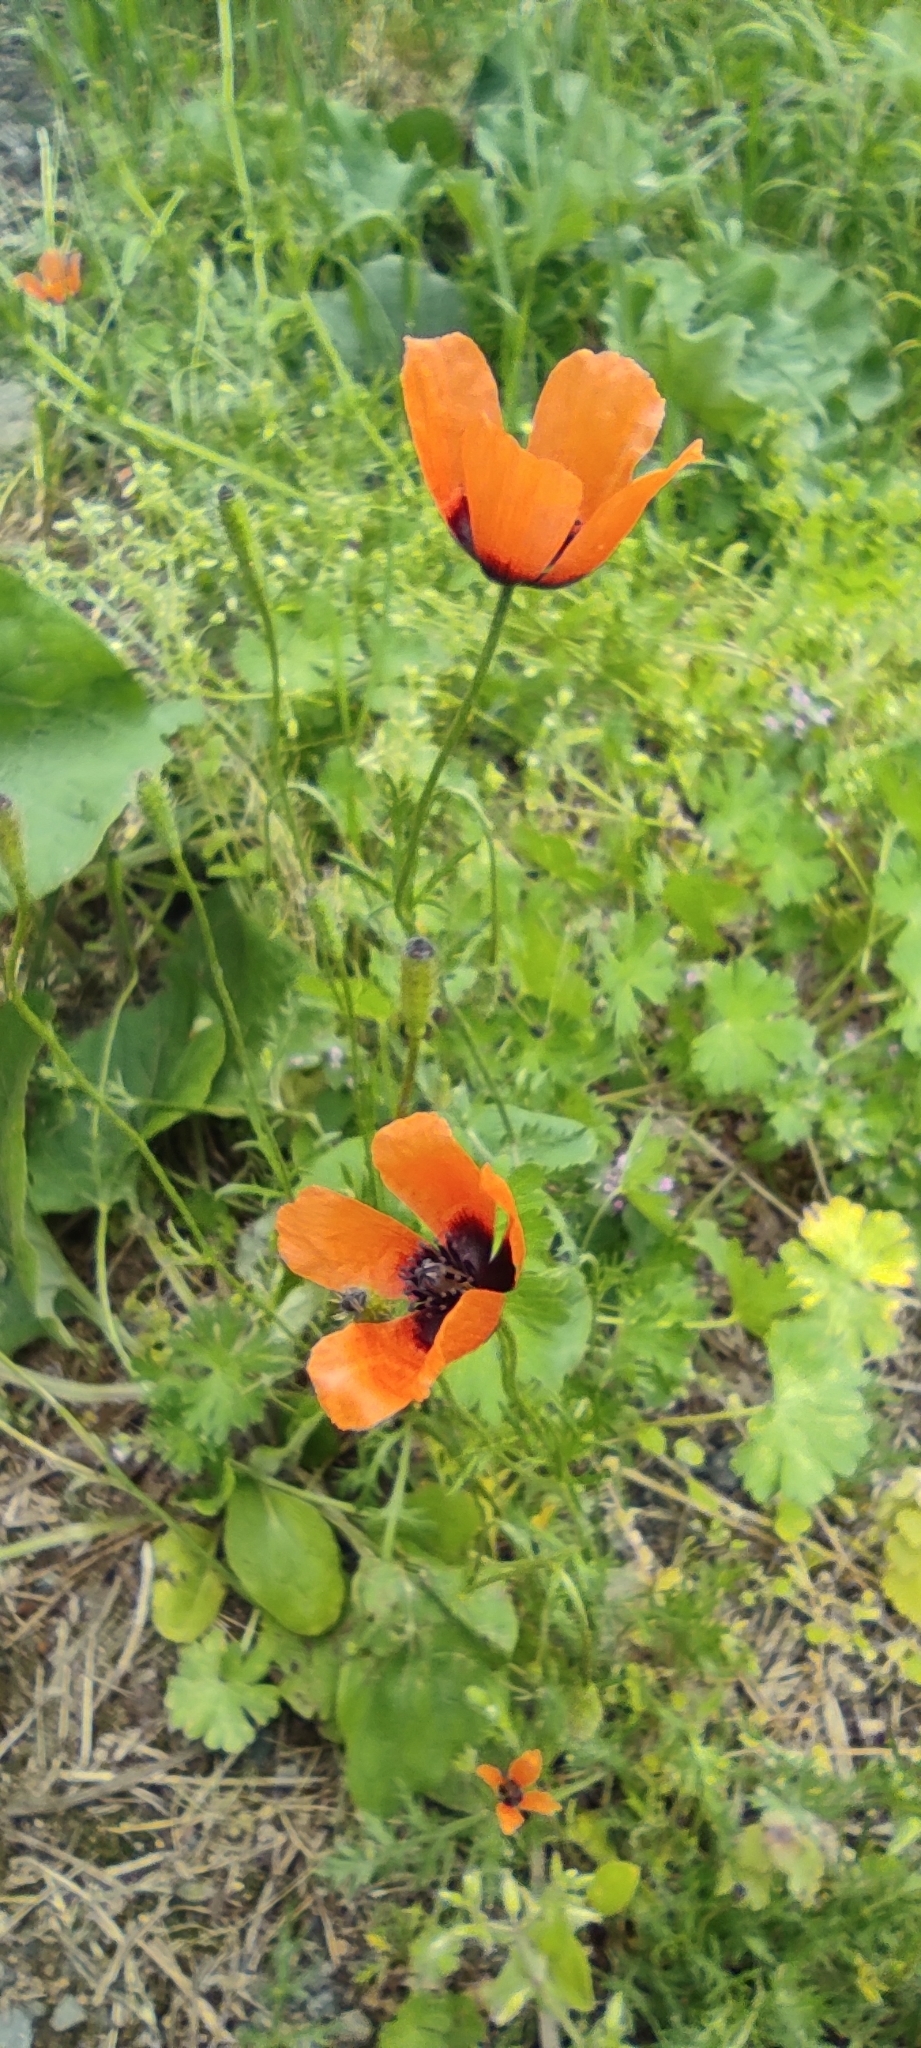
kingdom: Plantae
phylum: Tracheophyta
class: Magnoliopsida
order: Ranunculales
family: Papaveraceae
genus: Roemeria
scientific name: Roemeria argemone
